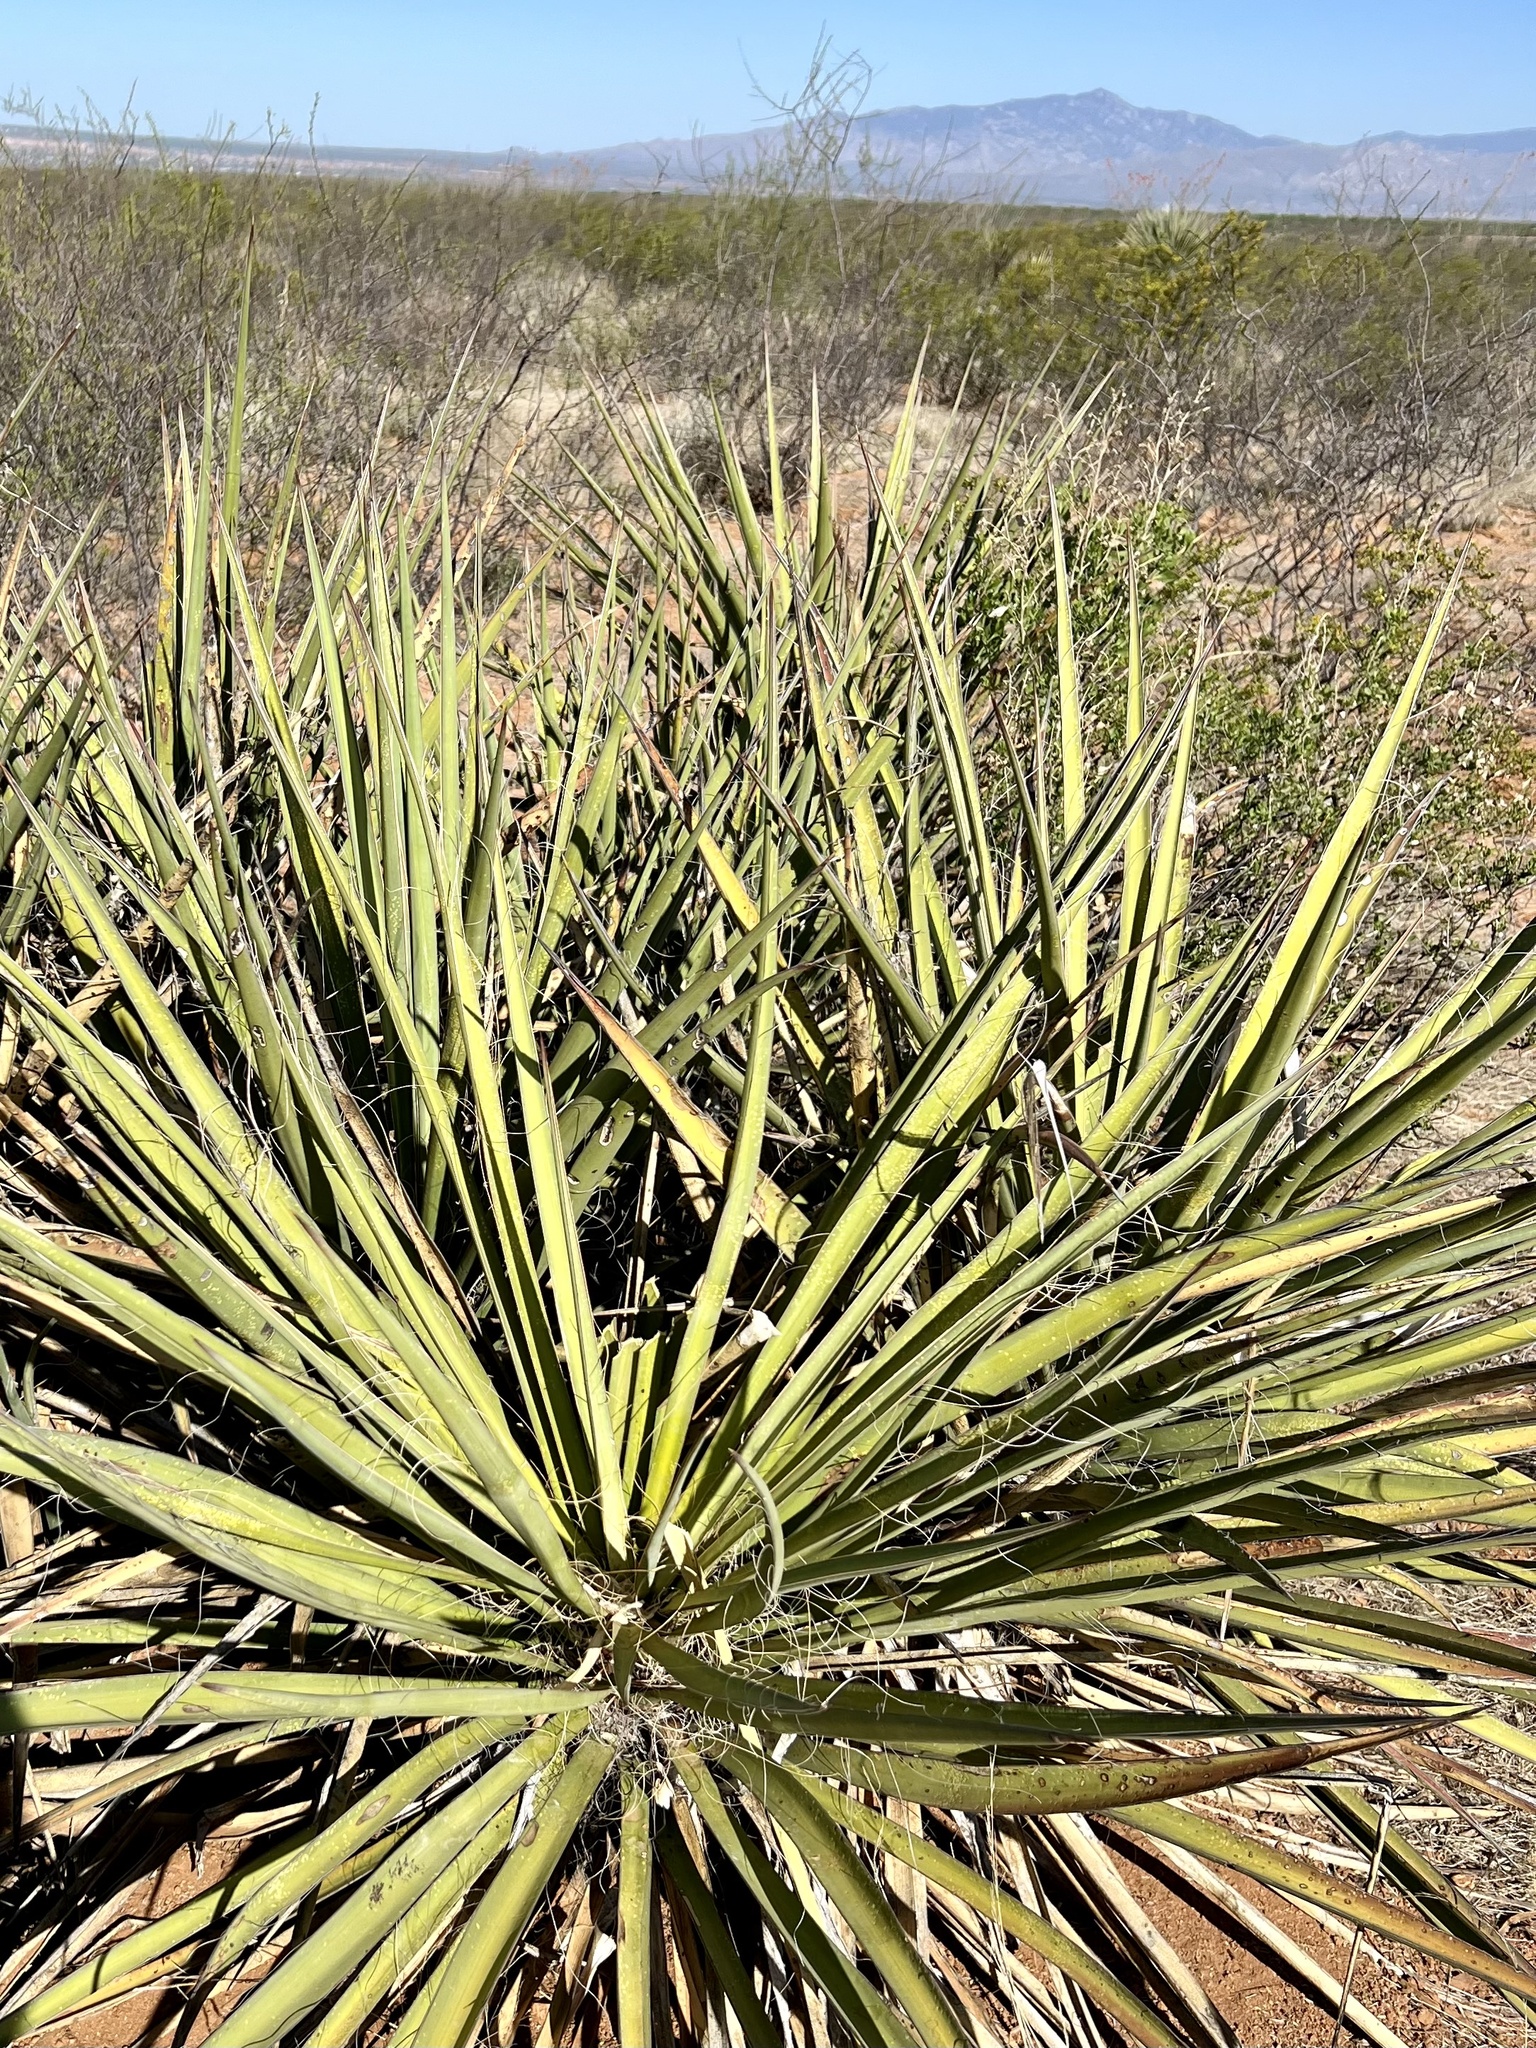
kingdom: Plantae
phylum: Tracheophyta
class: Liliopsida
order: Asparagales
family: Asparagaceae
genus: Yucca
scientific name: Yucca baccata
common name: Banana yucca
